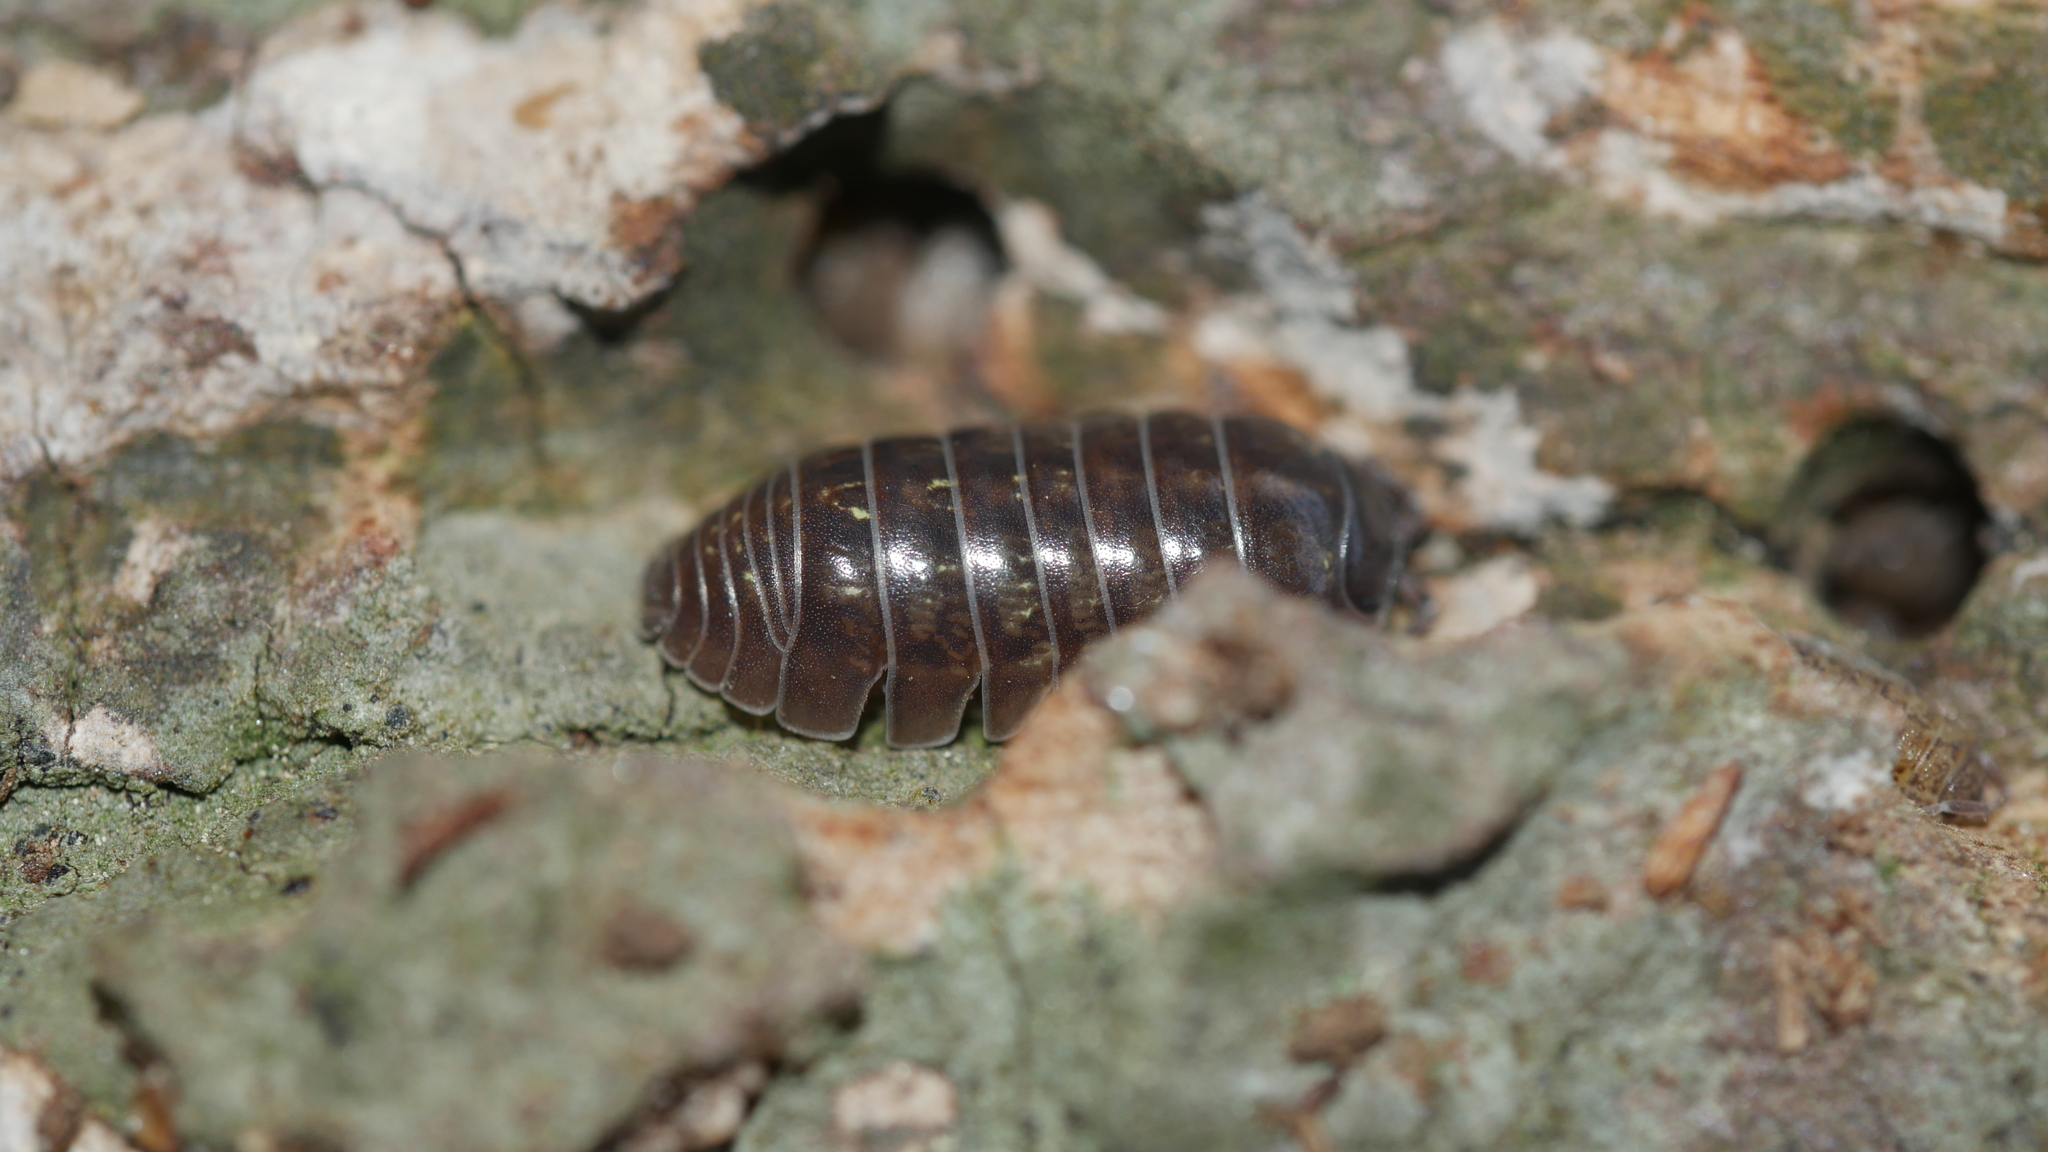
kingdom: Animalia
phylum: Arthropoda
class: Malacostraca
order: Isopoda
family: Armadillidiidae
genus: Armadillidium
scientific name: Armadillidium vulgare
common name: Common pill woodlouse
